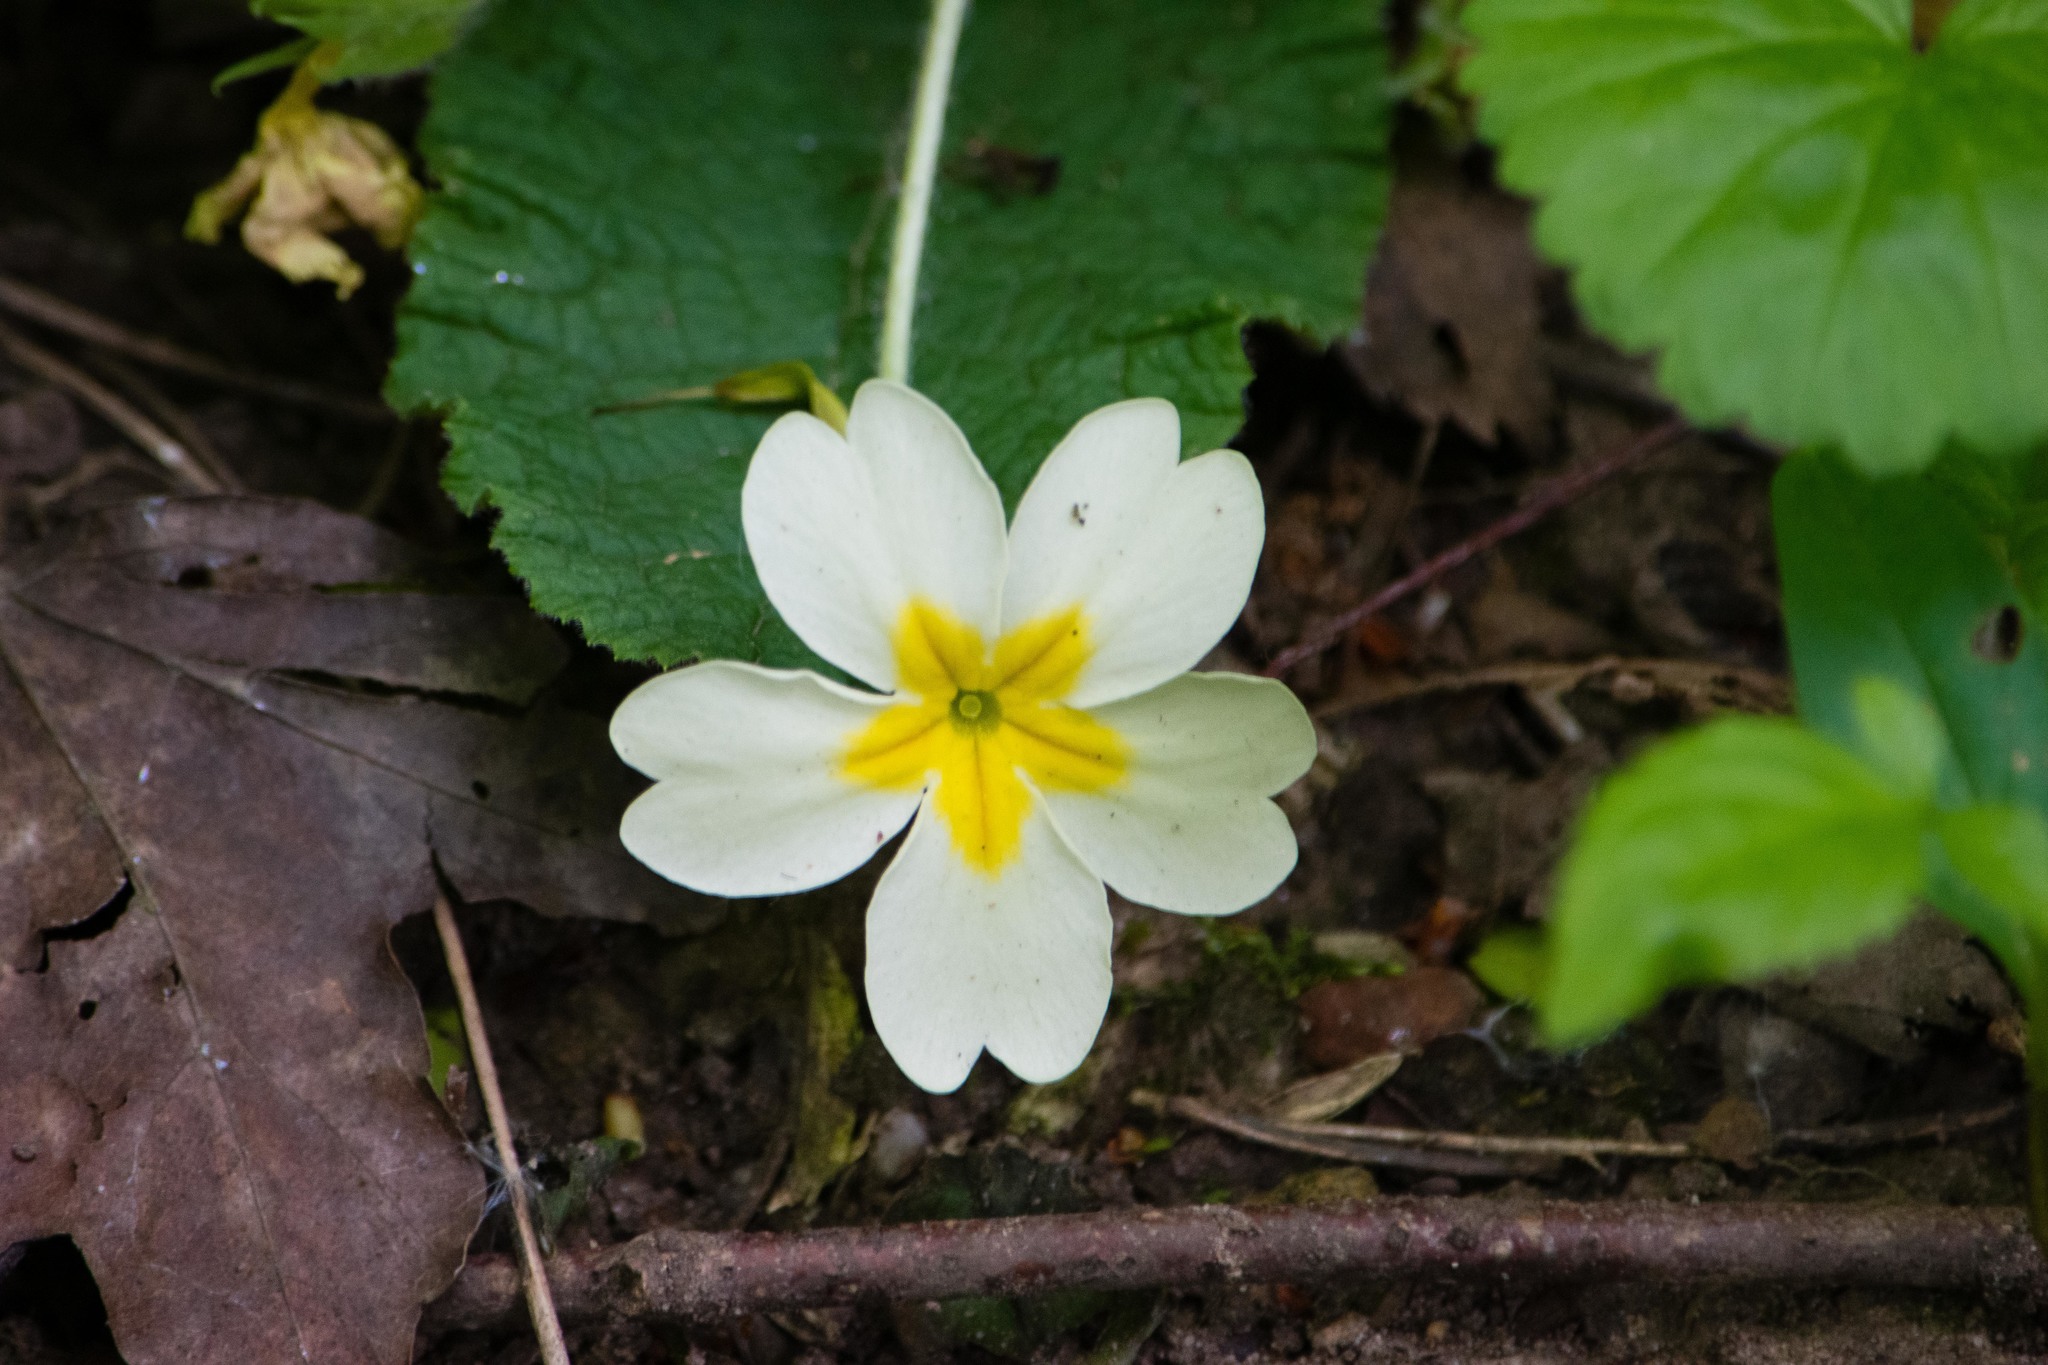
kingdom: Plantae
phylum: Tracheophyta
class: Magnoliopsida
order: Ericales
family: Primulaceae
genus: Primula
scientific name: Primula vulgaris
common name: Primrose
